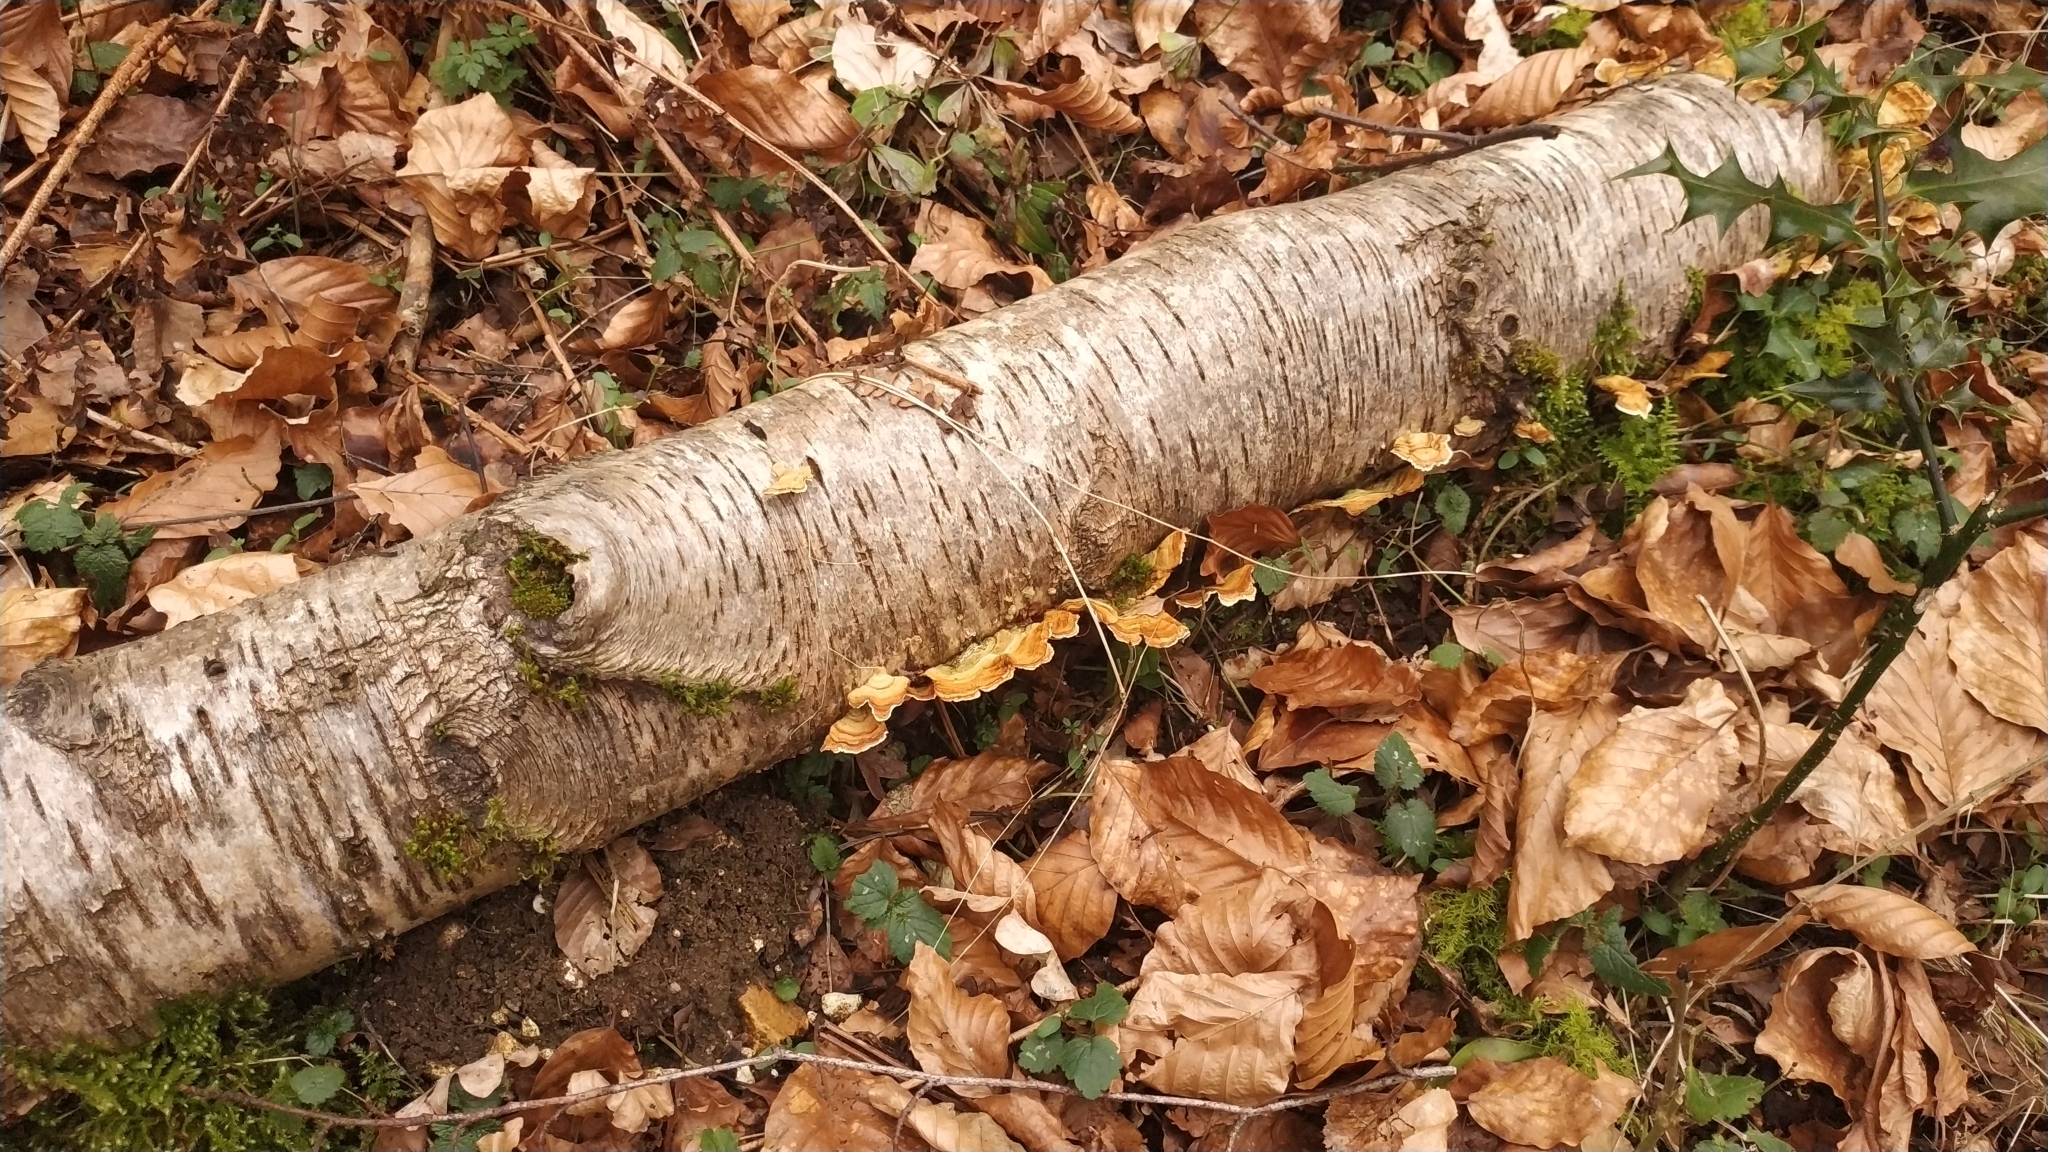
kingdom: Fungi
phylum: Basidiomycota
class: Agaricomycetes
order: Russulales
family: Stereaceae
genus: Stereum
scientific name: Stereum hirsutum
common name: Hairy curtain crust
